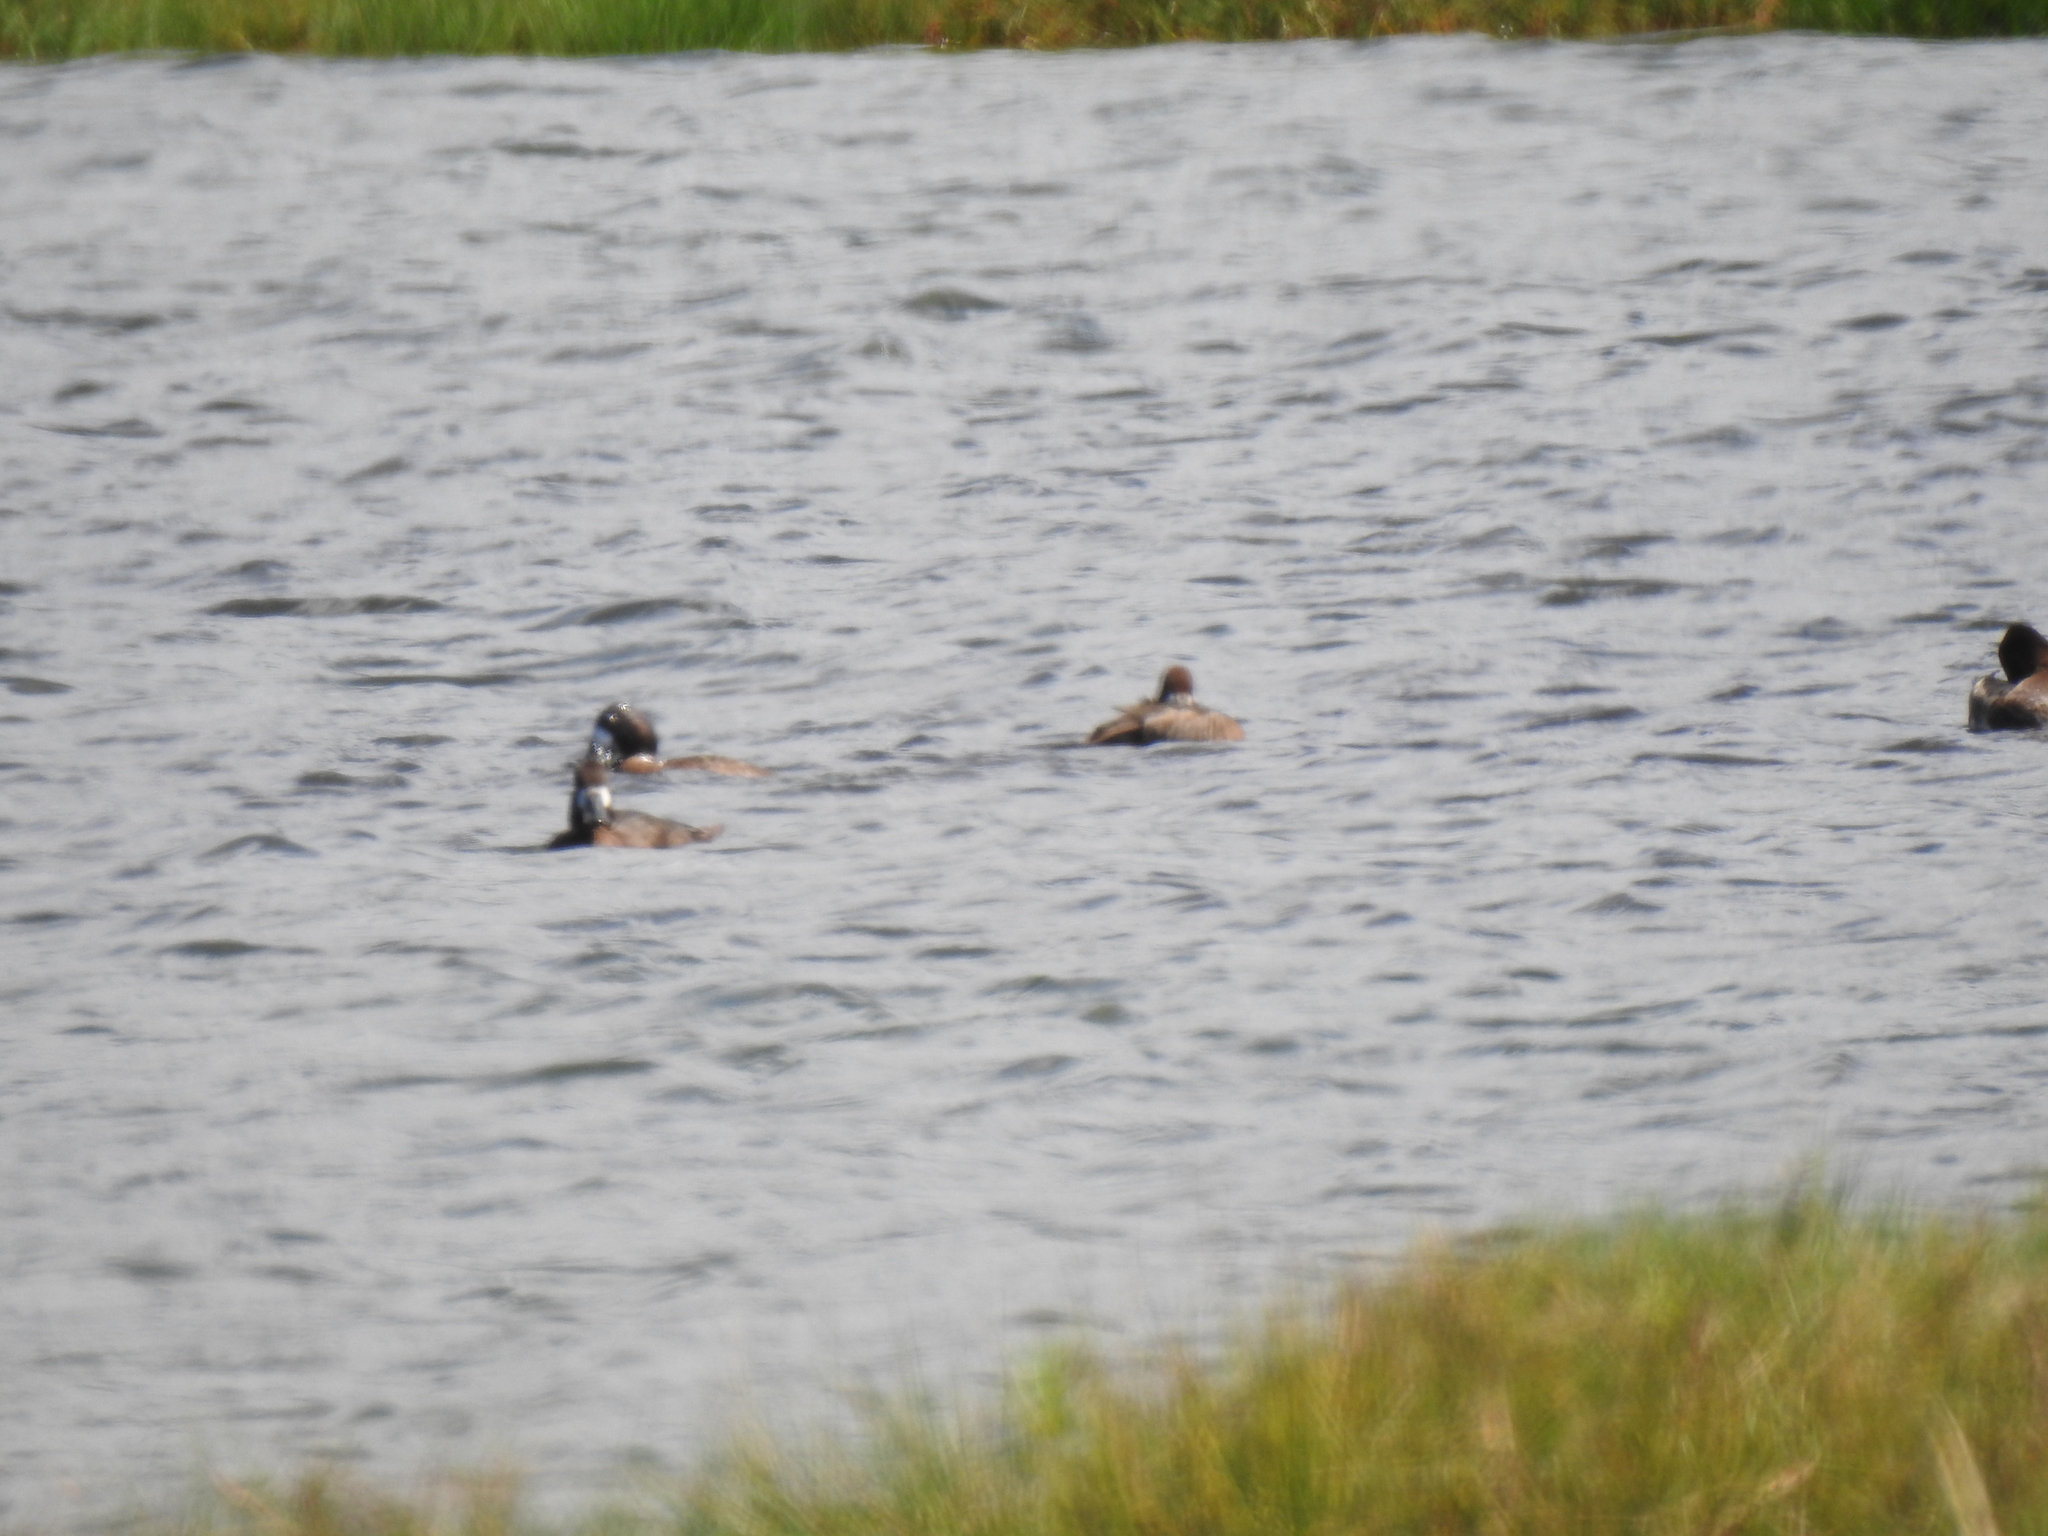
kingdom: Animalia
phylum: Chordata
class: Aves
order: Anseriformes
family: Anatidae
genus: Aythya
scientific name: Aythya
